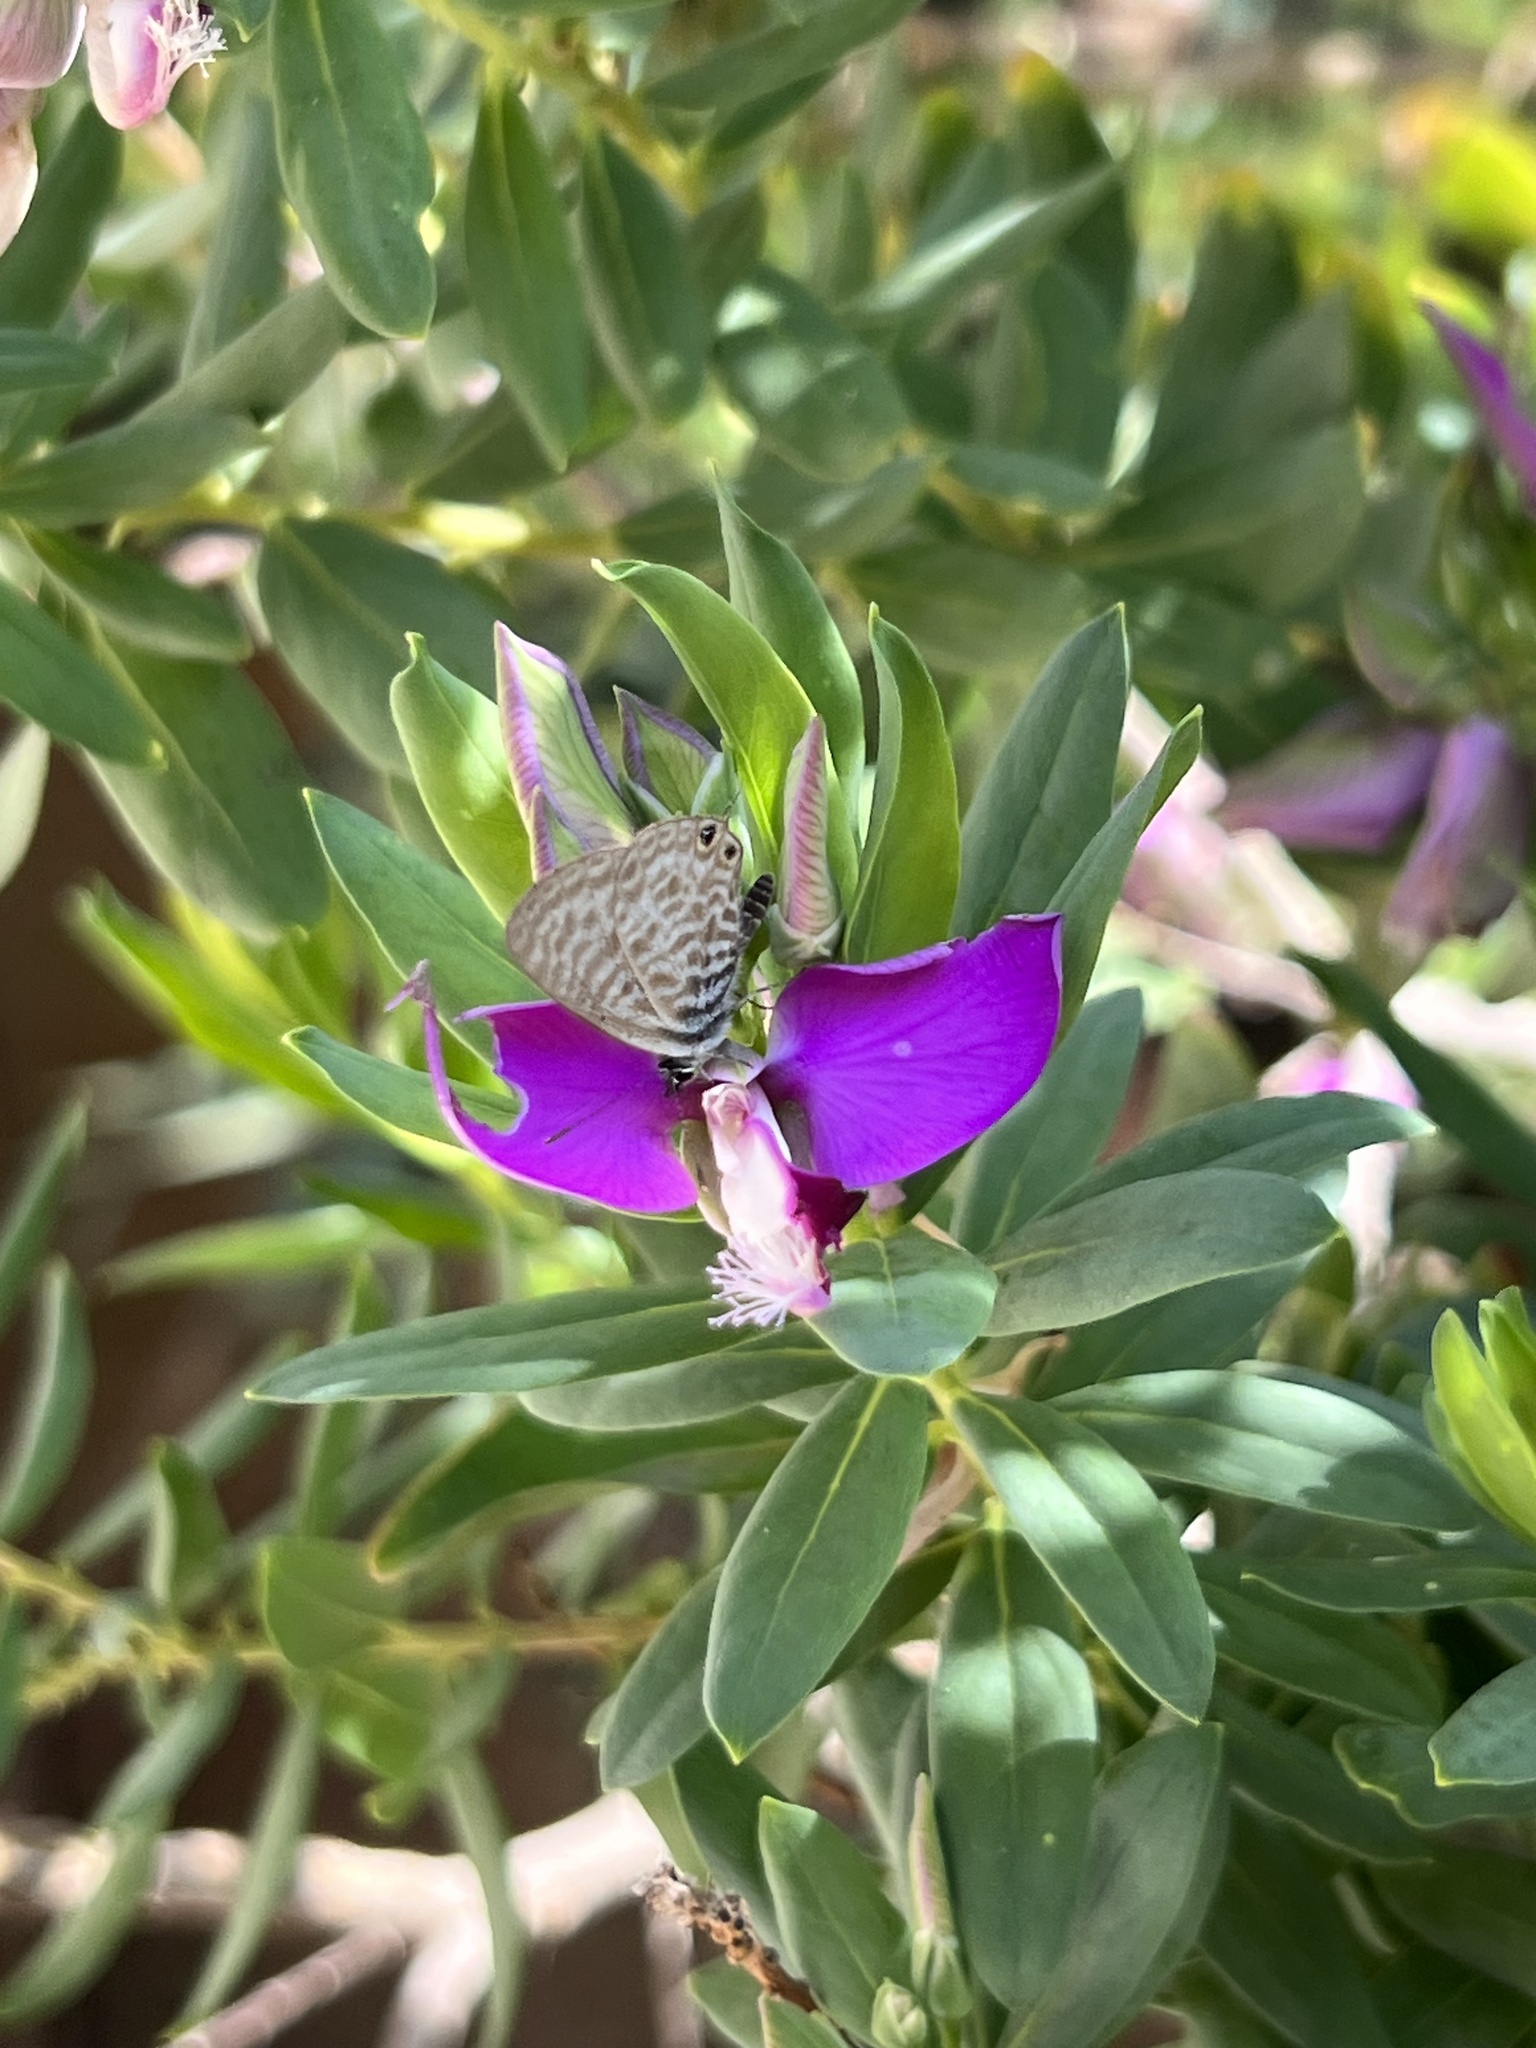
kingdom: Animalia
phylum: Arthropoda
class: Insecta
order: Lepidoptera
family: Lycaenidae
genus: Leptotes
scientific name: Leptotes pirithous
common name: Lang's short-tailed blue
